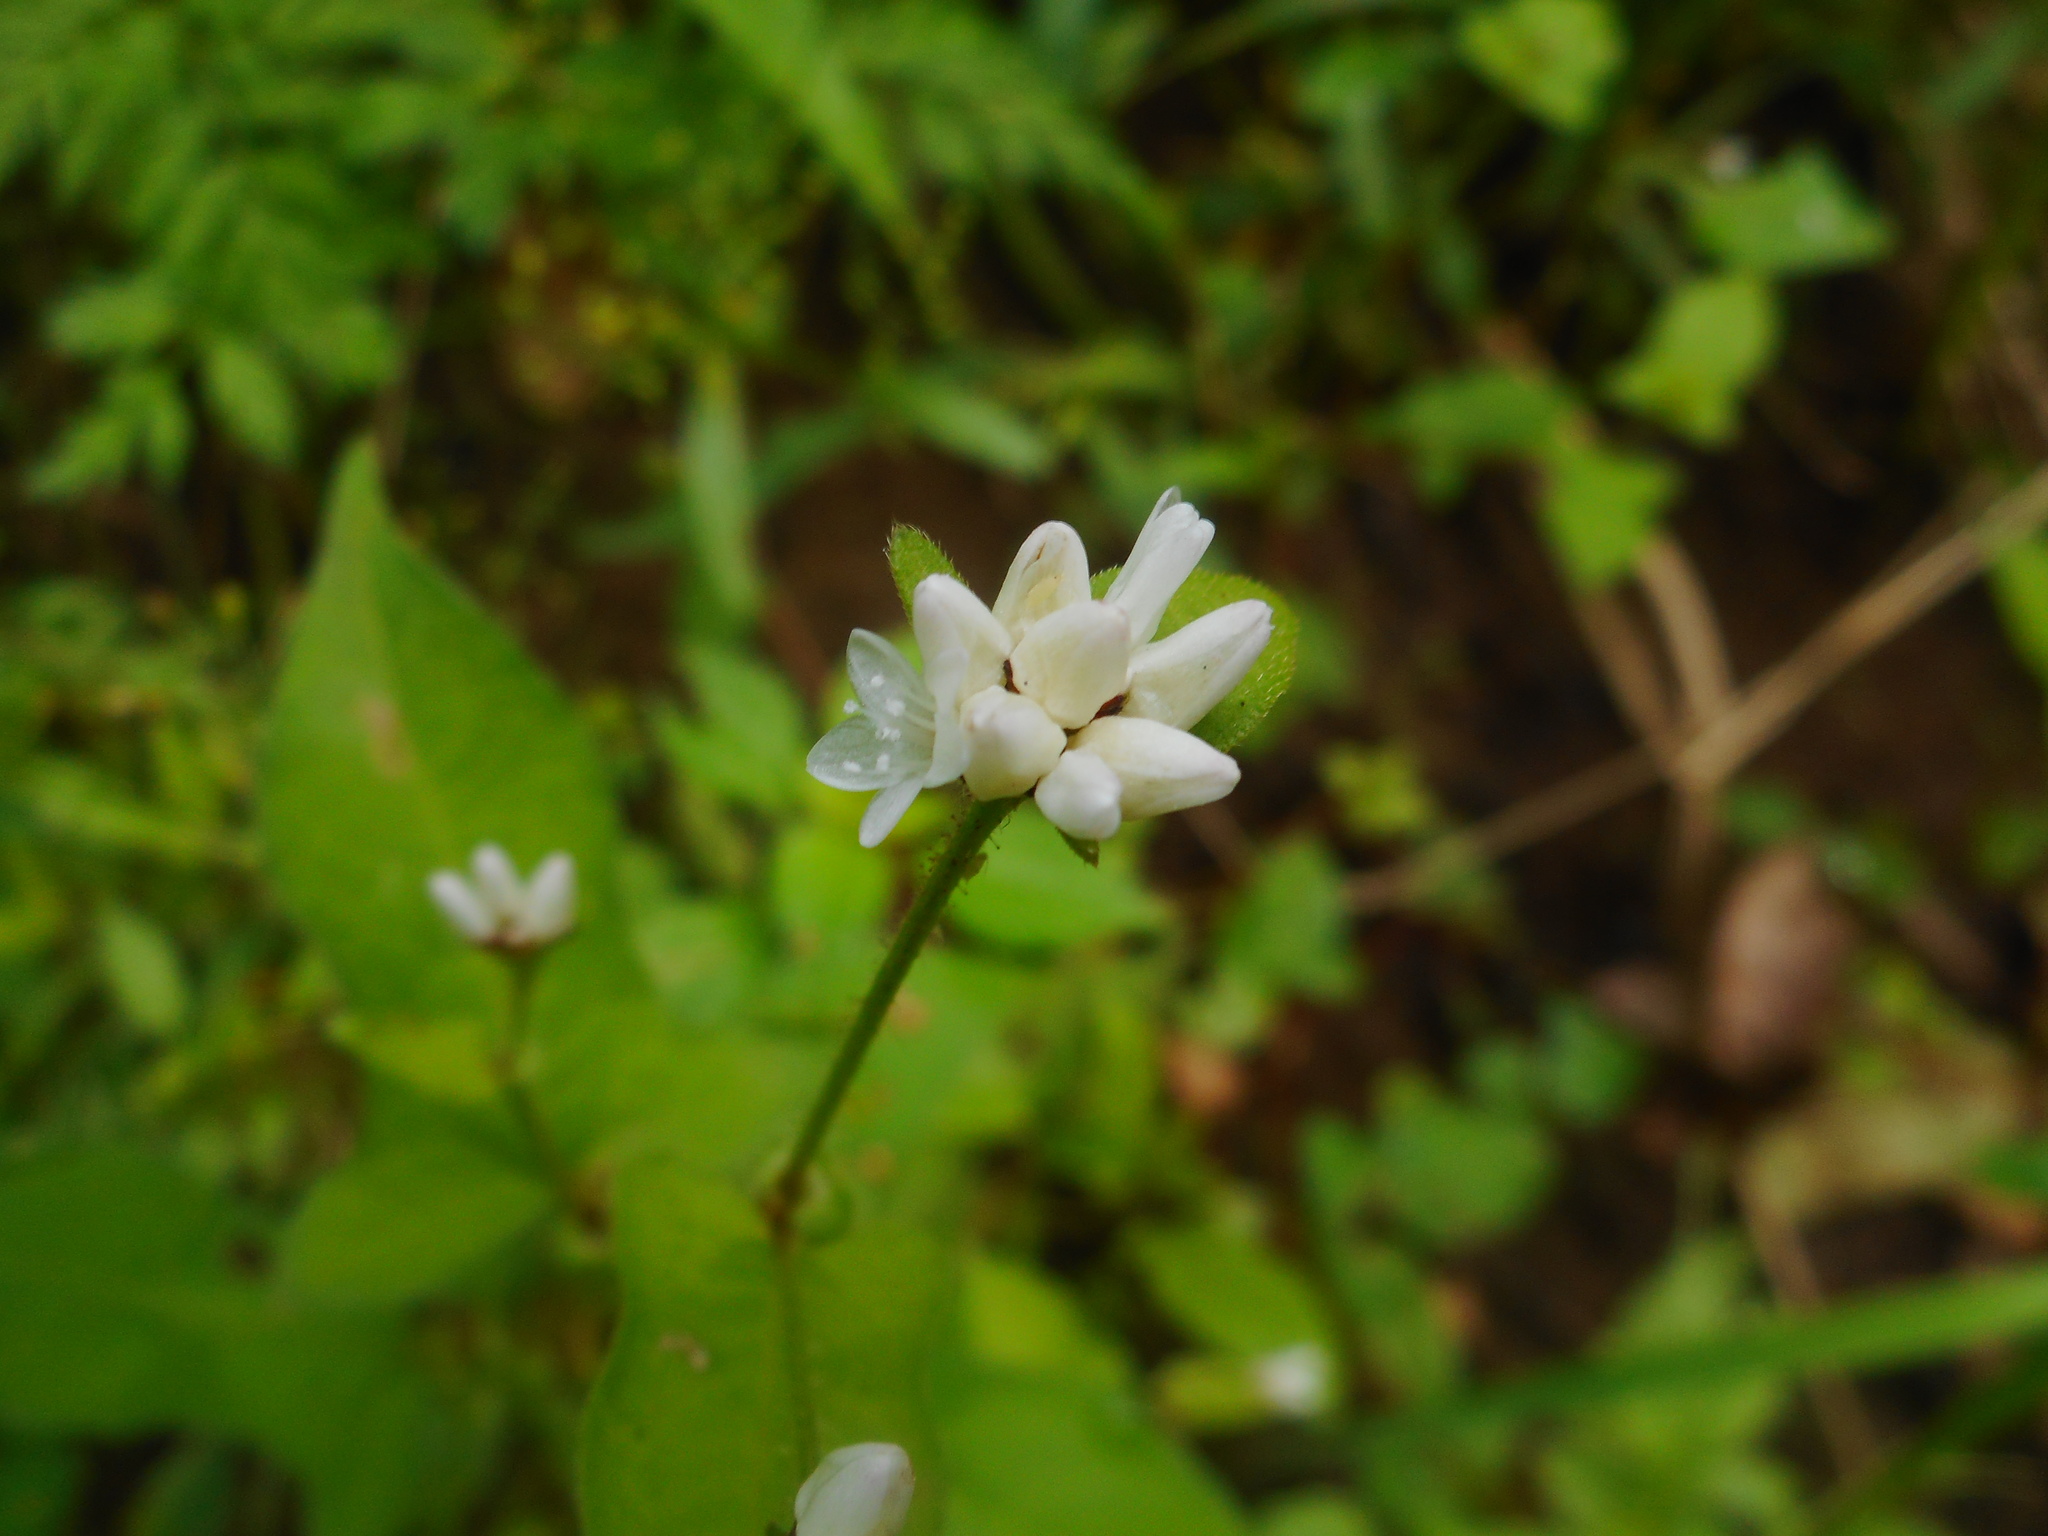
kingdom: Plantae
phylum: Tracheophyta
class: Magnoliopsida
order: Caryophyllales
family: Polygonaceae
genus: Persicaria
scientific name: Persicaria thunbergii
